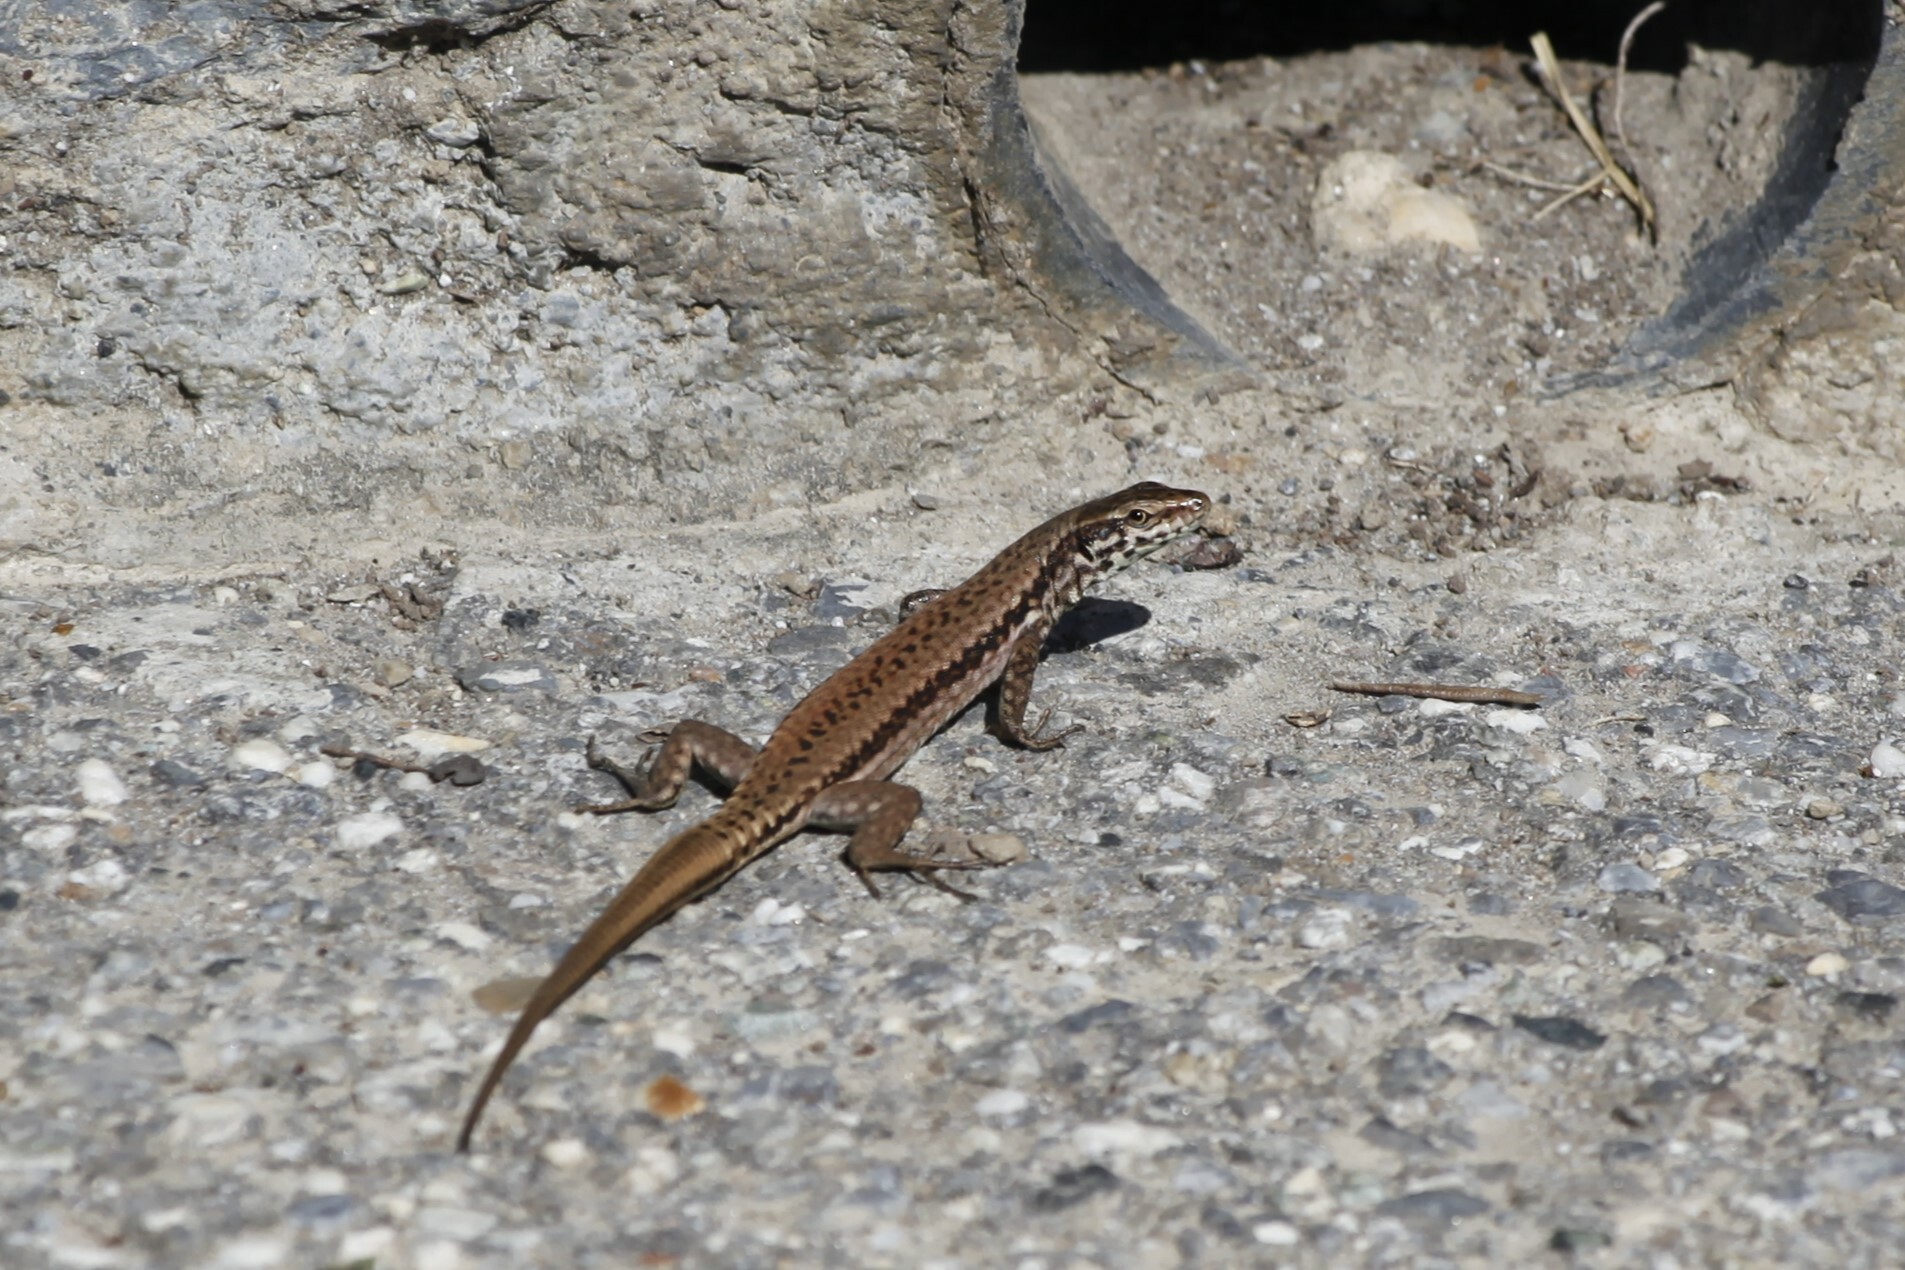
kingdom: Animalia
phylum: Chordata
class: Squamata
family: Lacertidae
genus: Podarcis
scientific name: Podarcis muralis
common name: Common wall lizard
